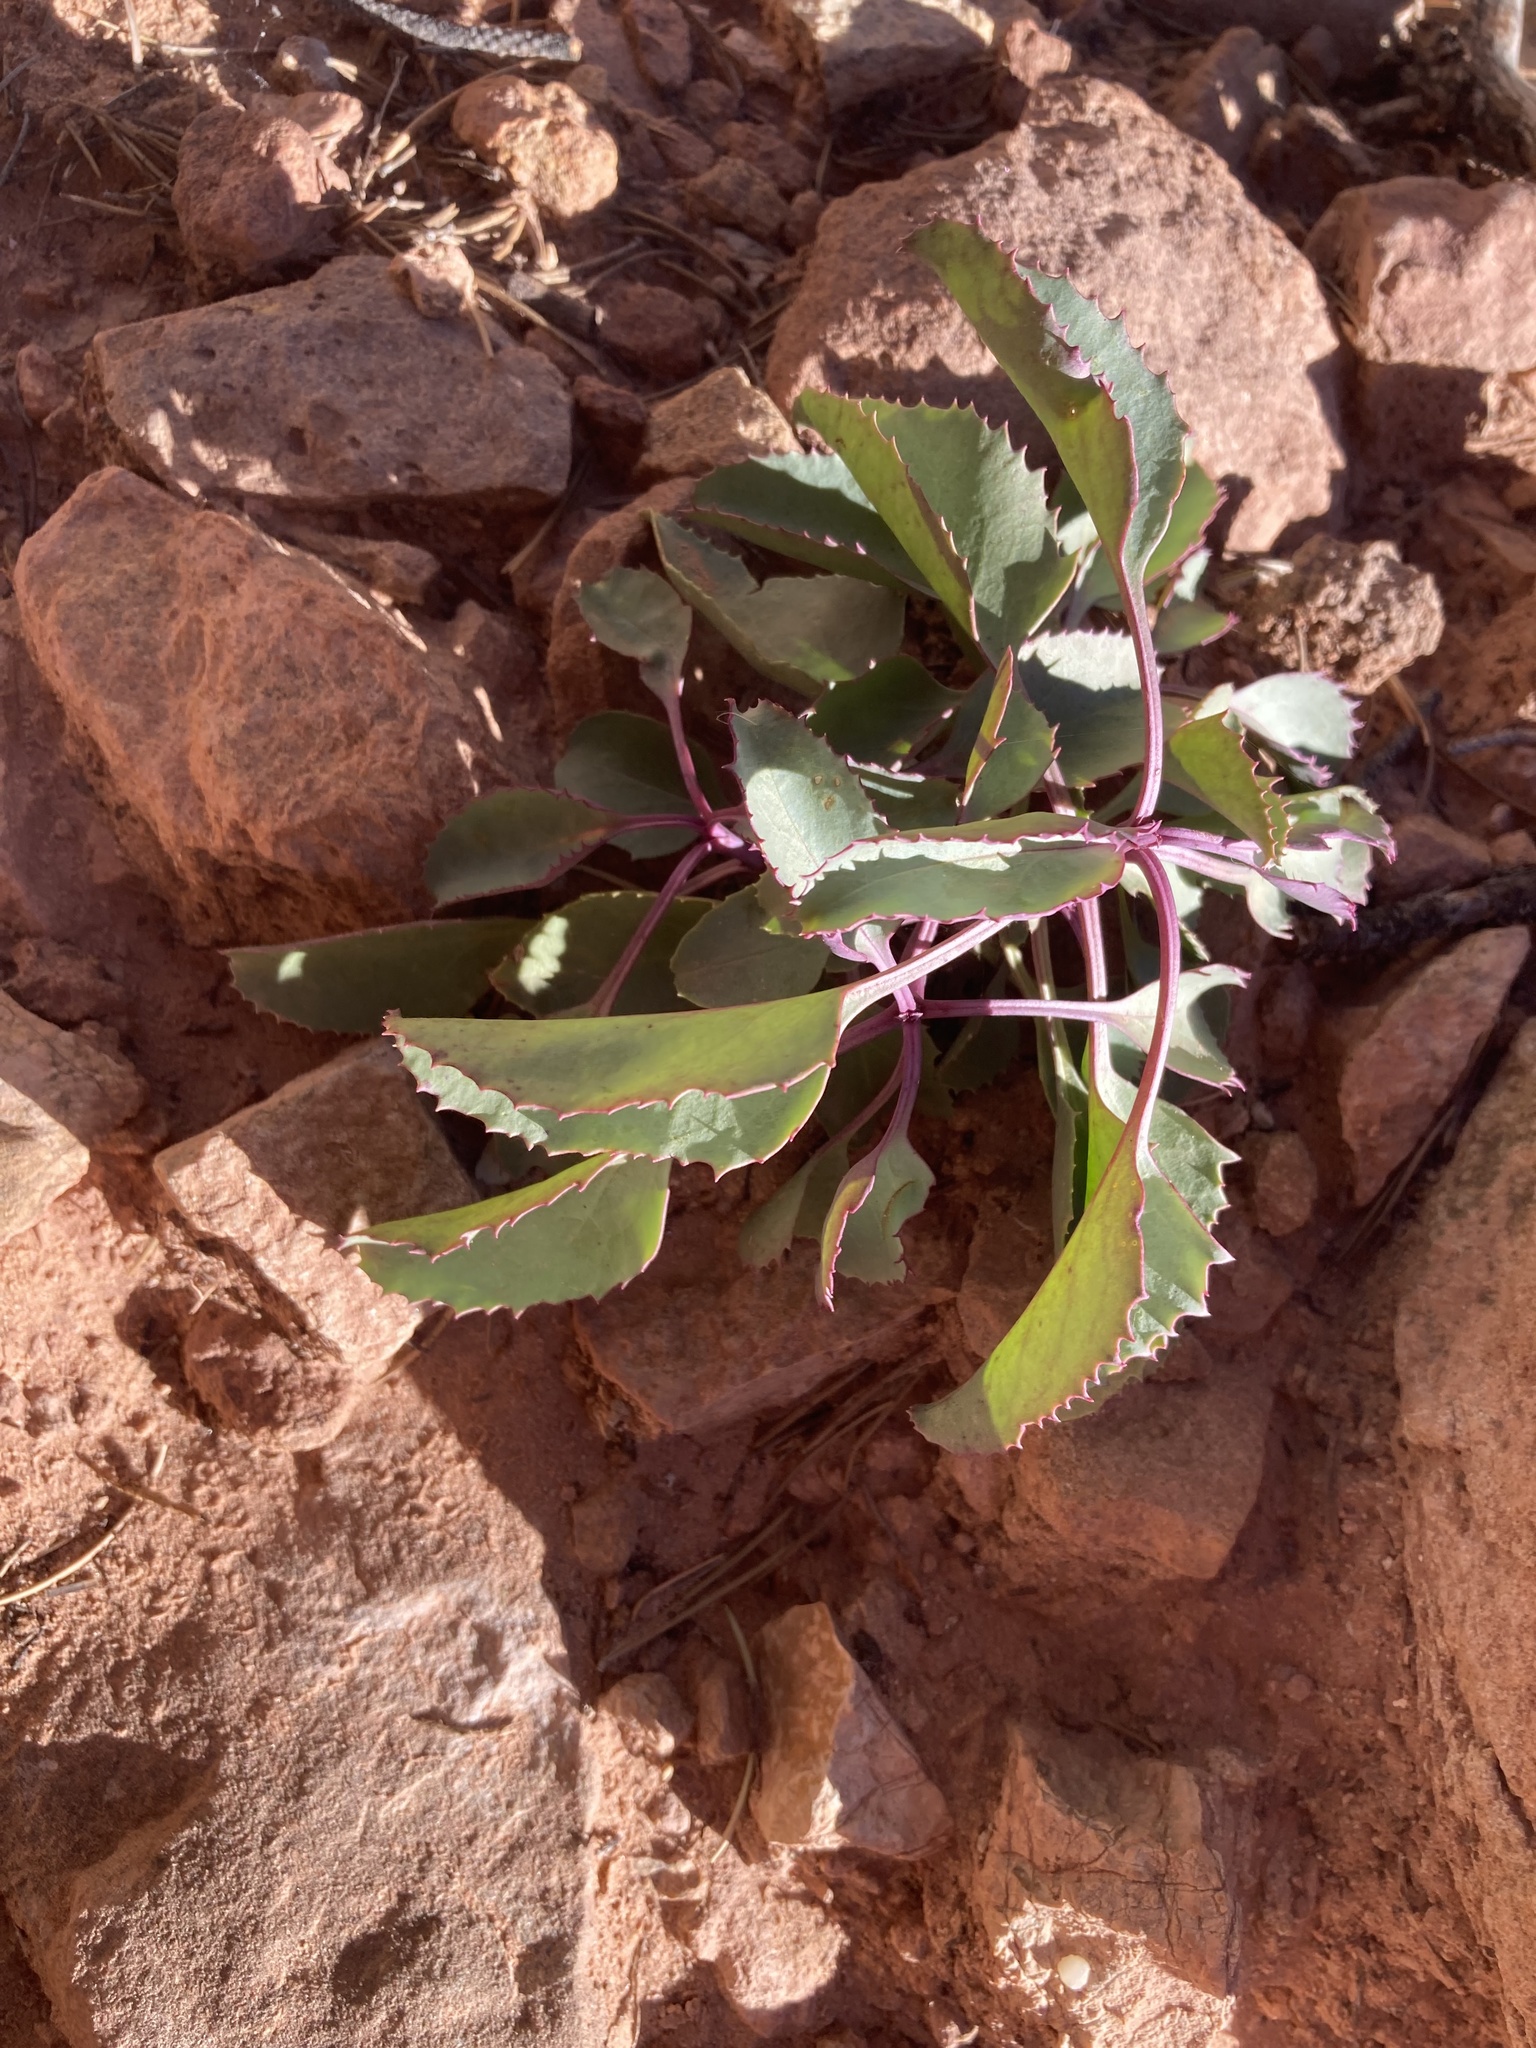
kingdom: Plantae
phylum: Tracheophyta
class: Magnoliopsida
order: Lamiales
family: Plantaginaceae
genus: Penstemon
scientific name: Penstemon palmeri
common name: Palmer penstemon
